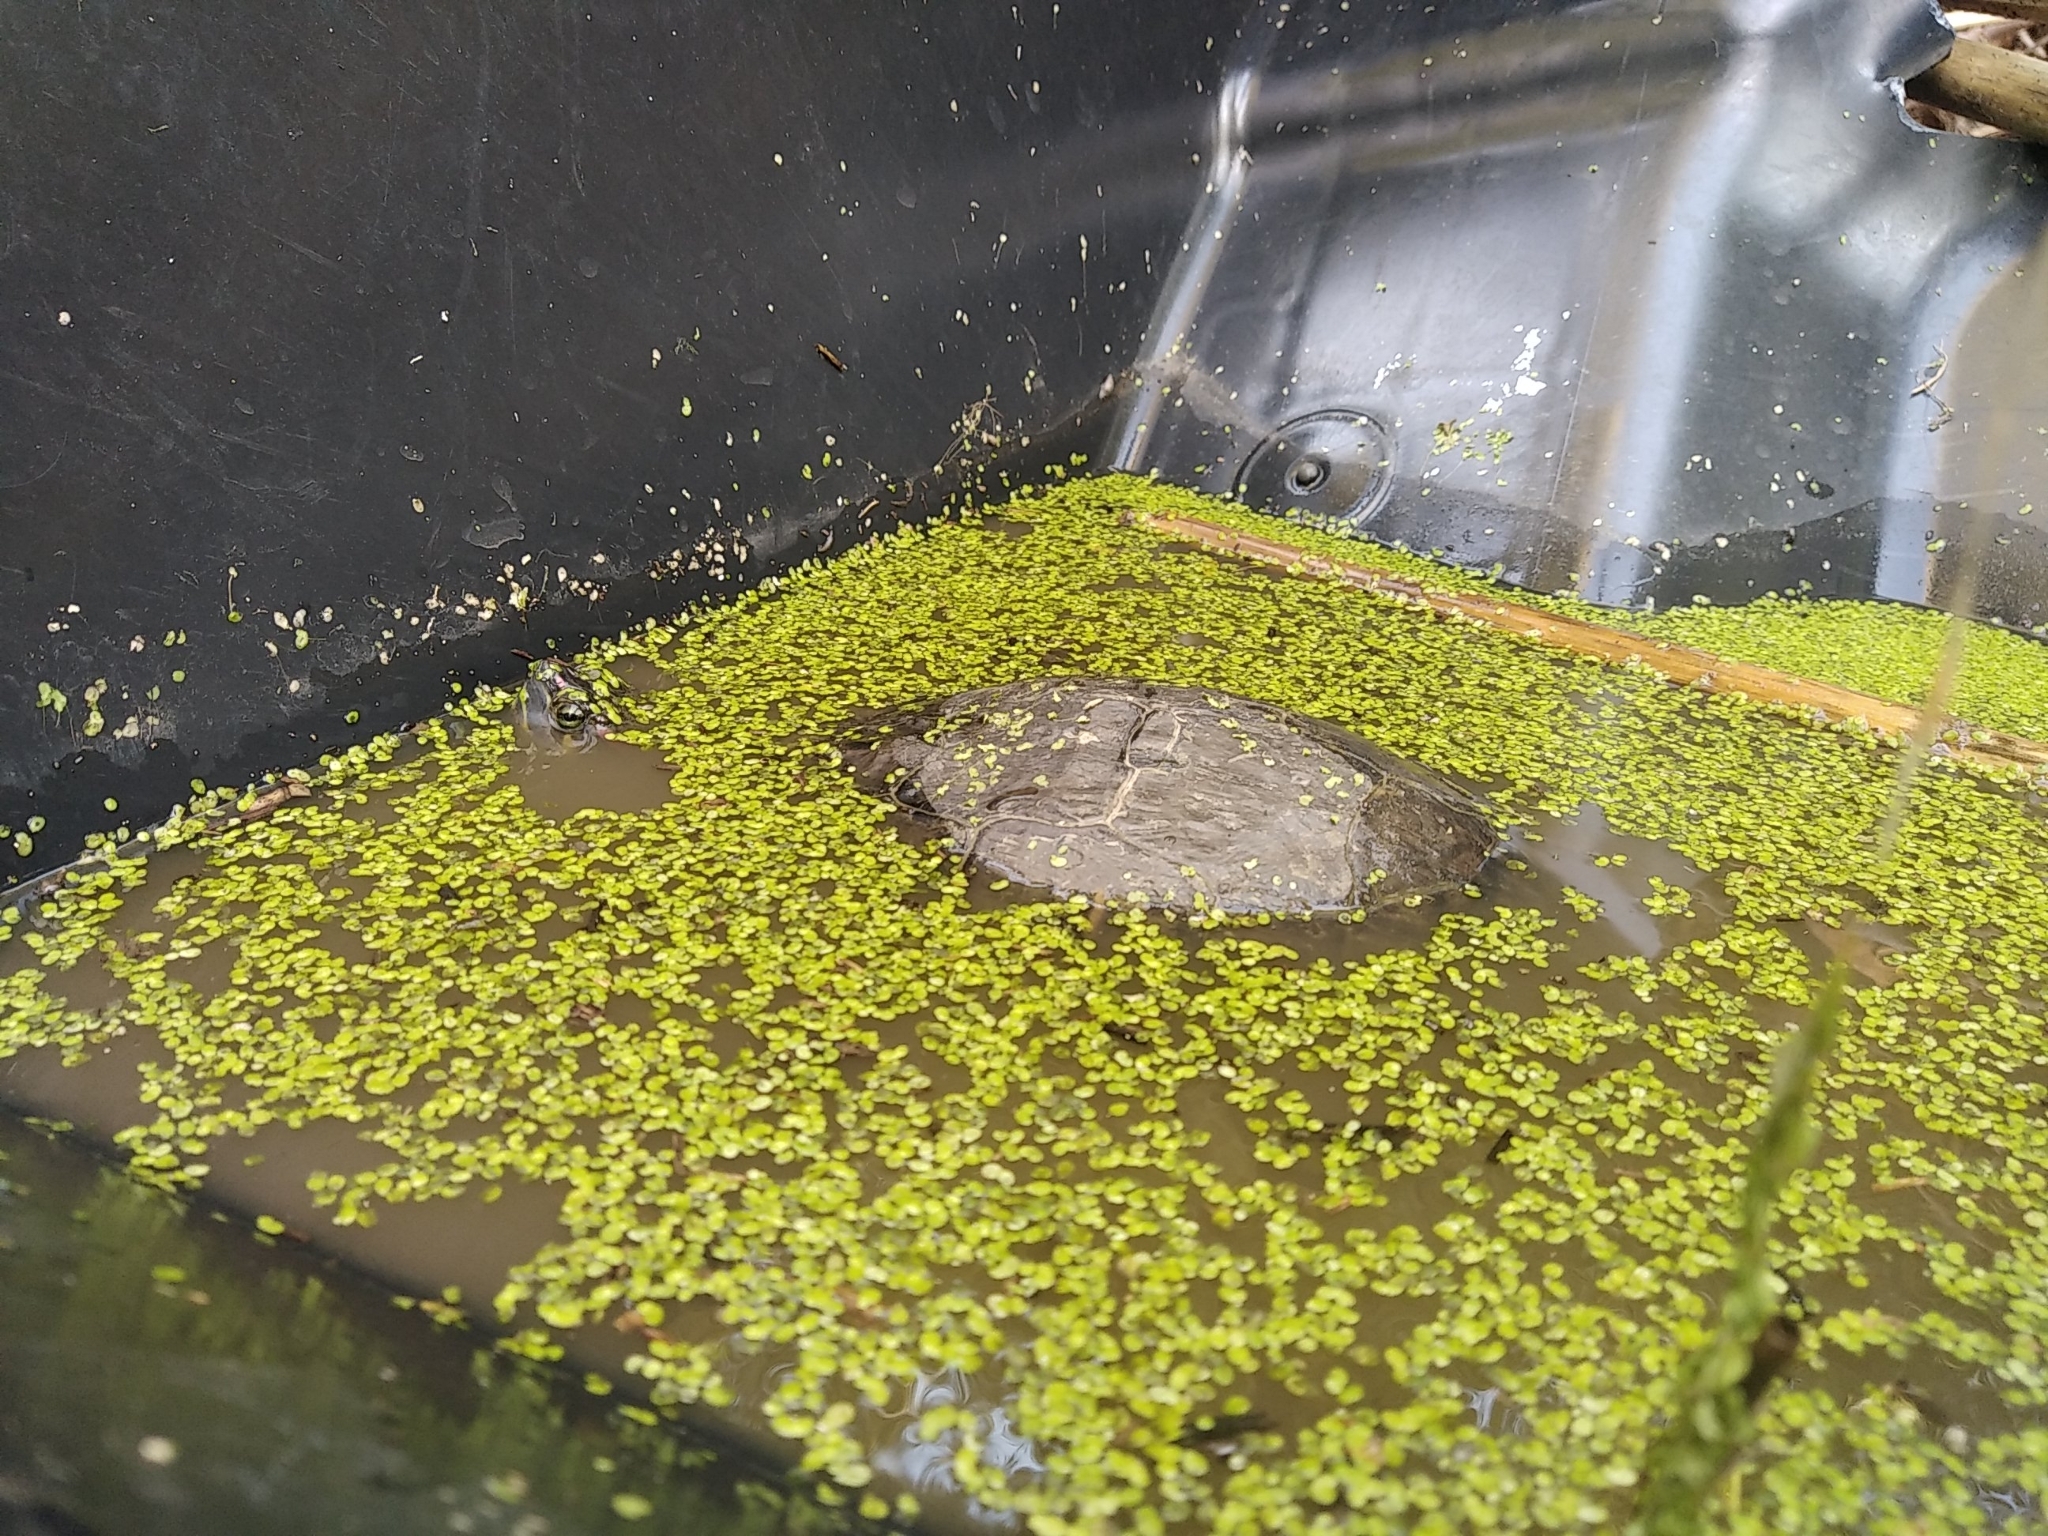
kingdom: Animalia
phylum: Chordata
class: Testudines
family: Emydidae
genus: Trachemys
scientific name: Trachemys scripta
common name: Slider
